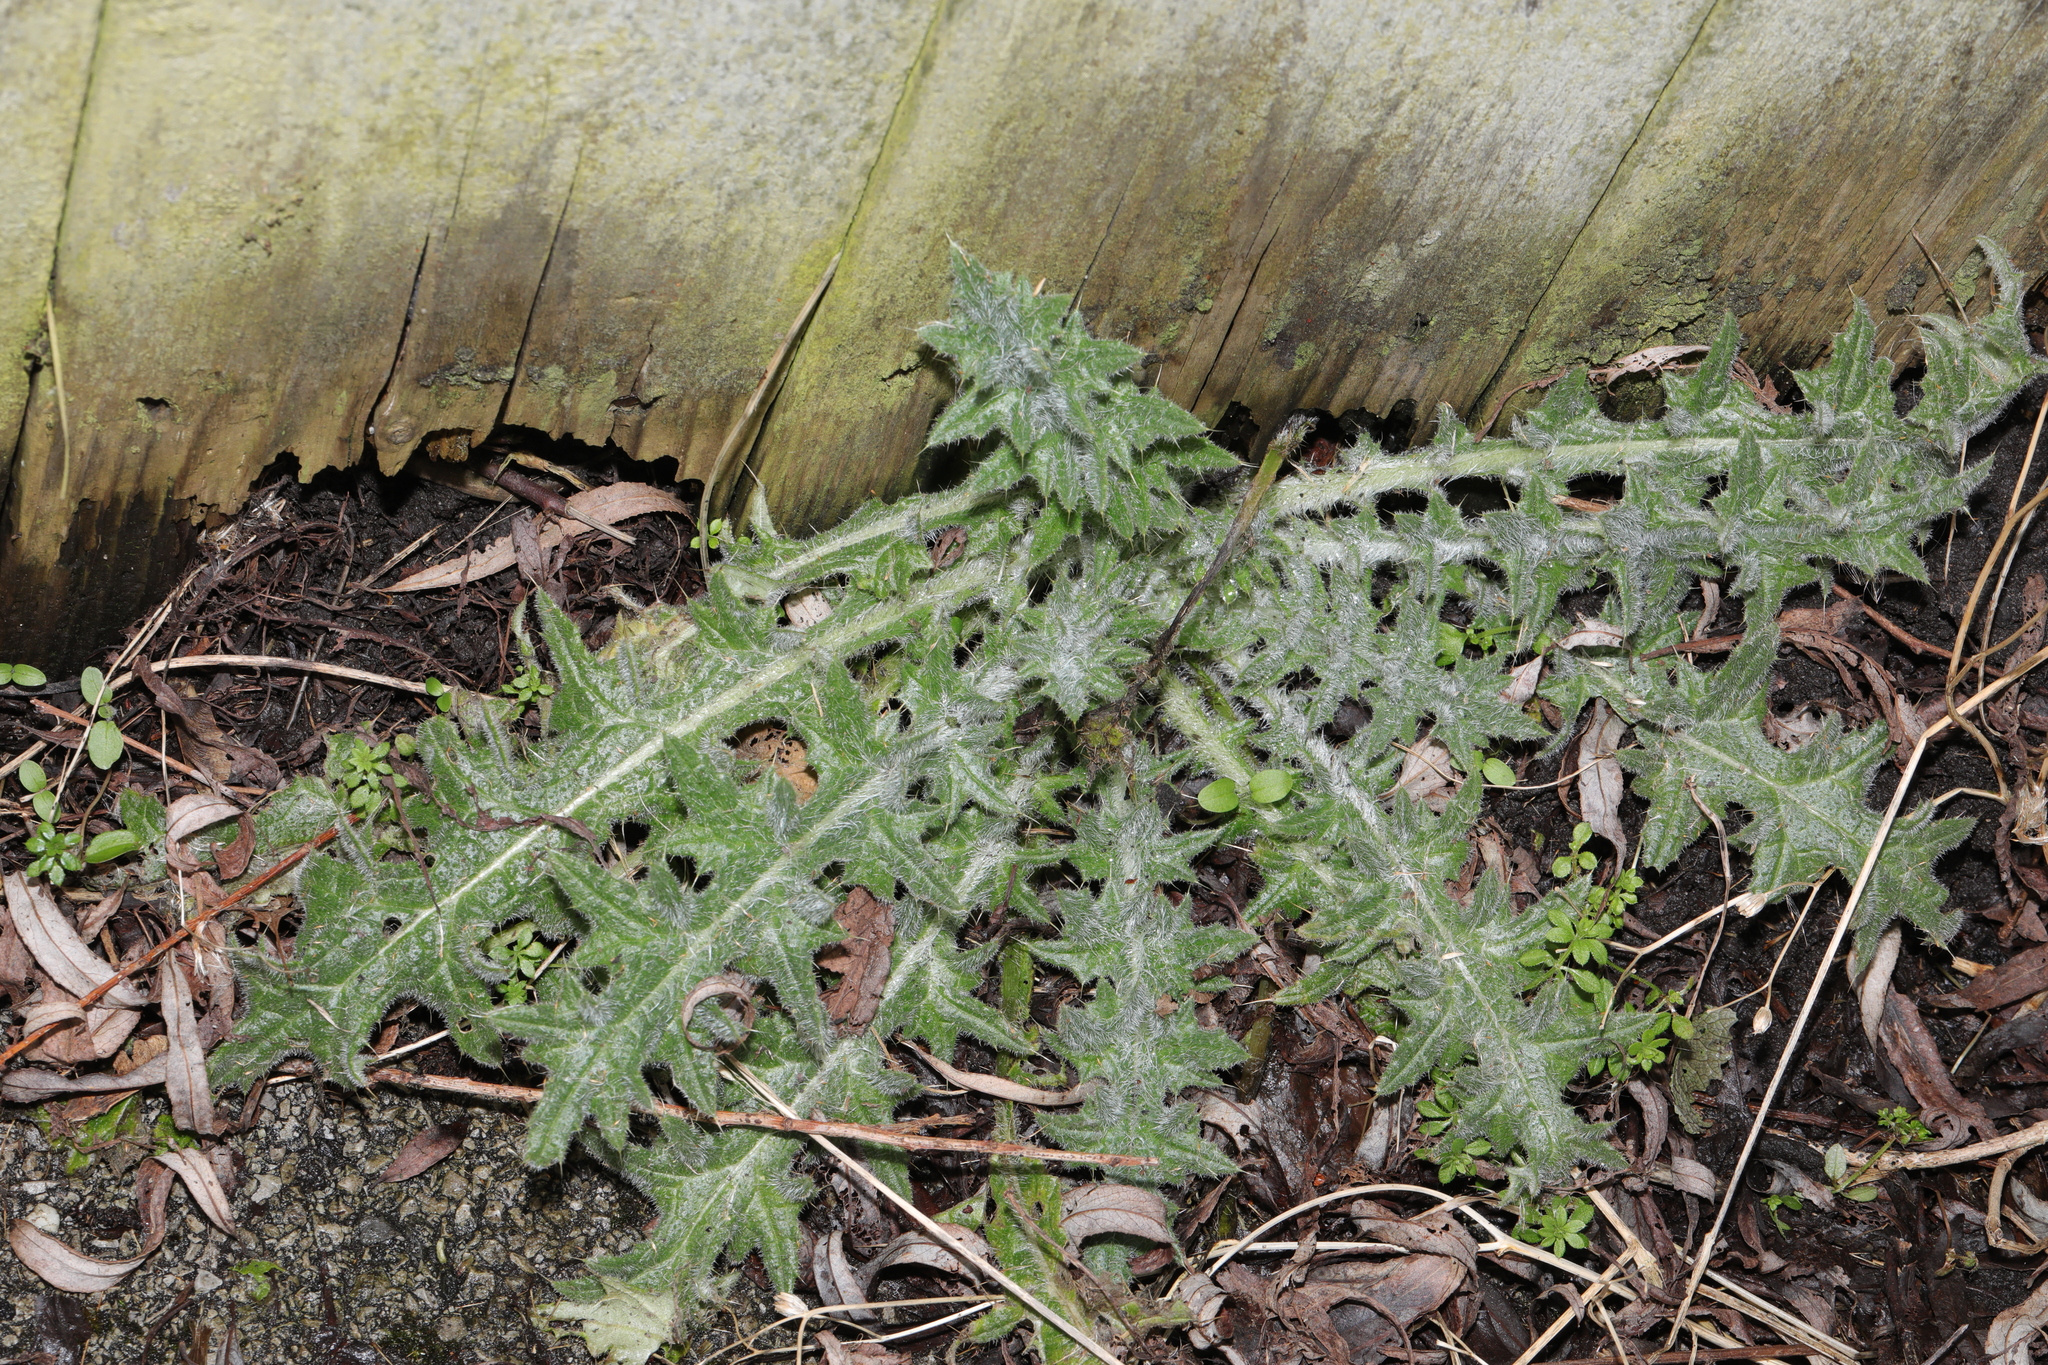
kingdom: Plantae
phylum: Tracheophyta
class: Magnoliopsida
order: Asterales
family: Asteraceae
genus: Cirsium
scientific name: Cirsium vulgare
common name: Bull thistle
